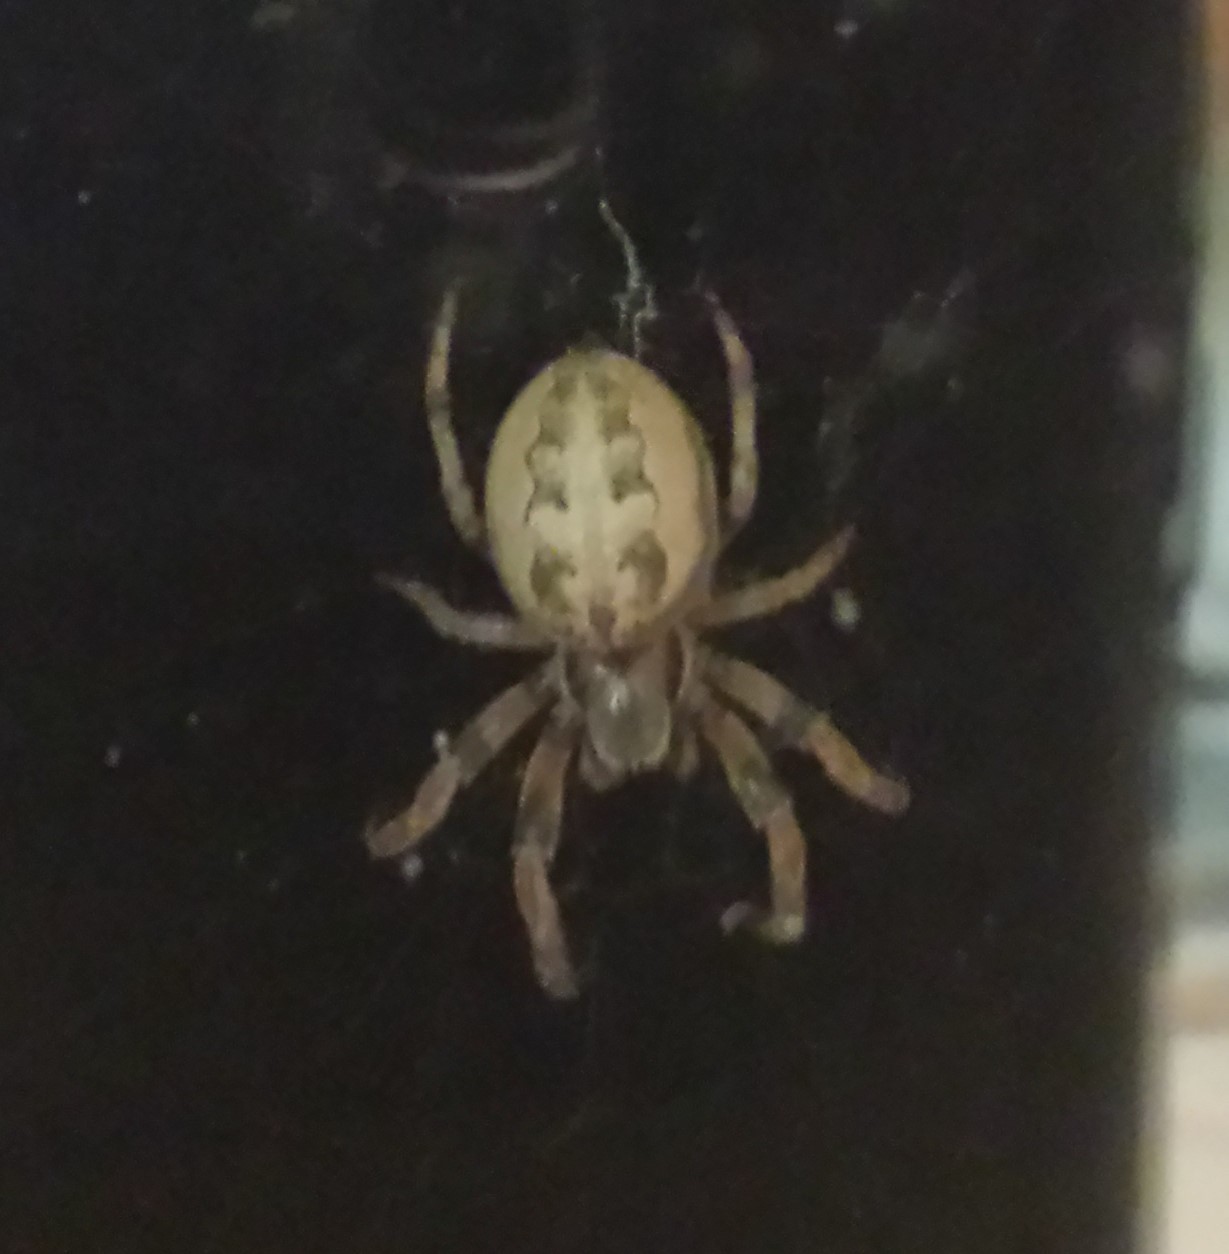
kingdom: Animalia
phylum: Arthropoda
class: Arachnida
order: Araneae
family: Araneidae
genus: Larinioides
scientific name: Larinioides cornutus
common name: Furrow orbweaver
